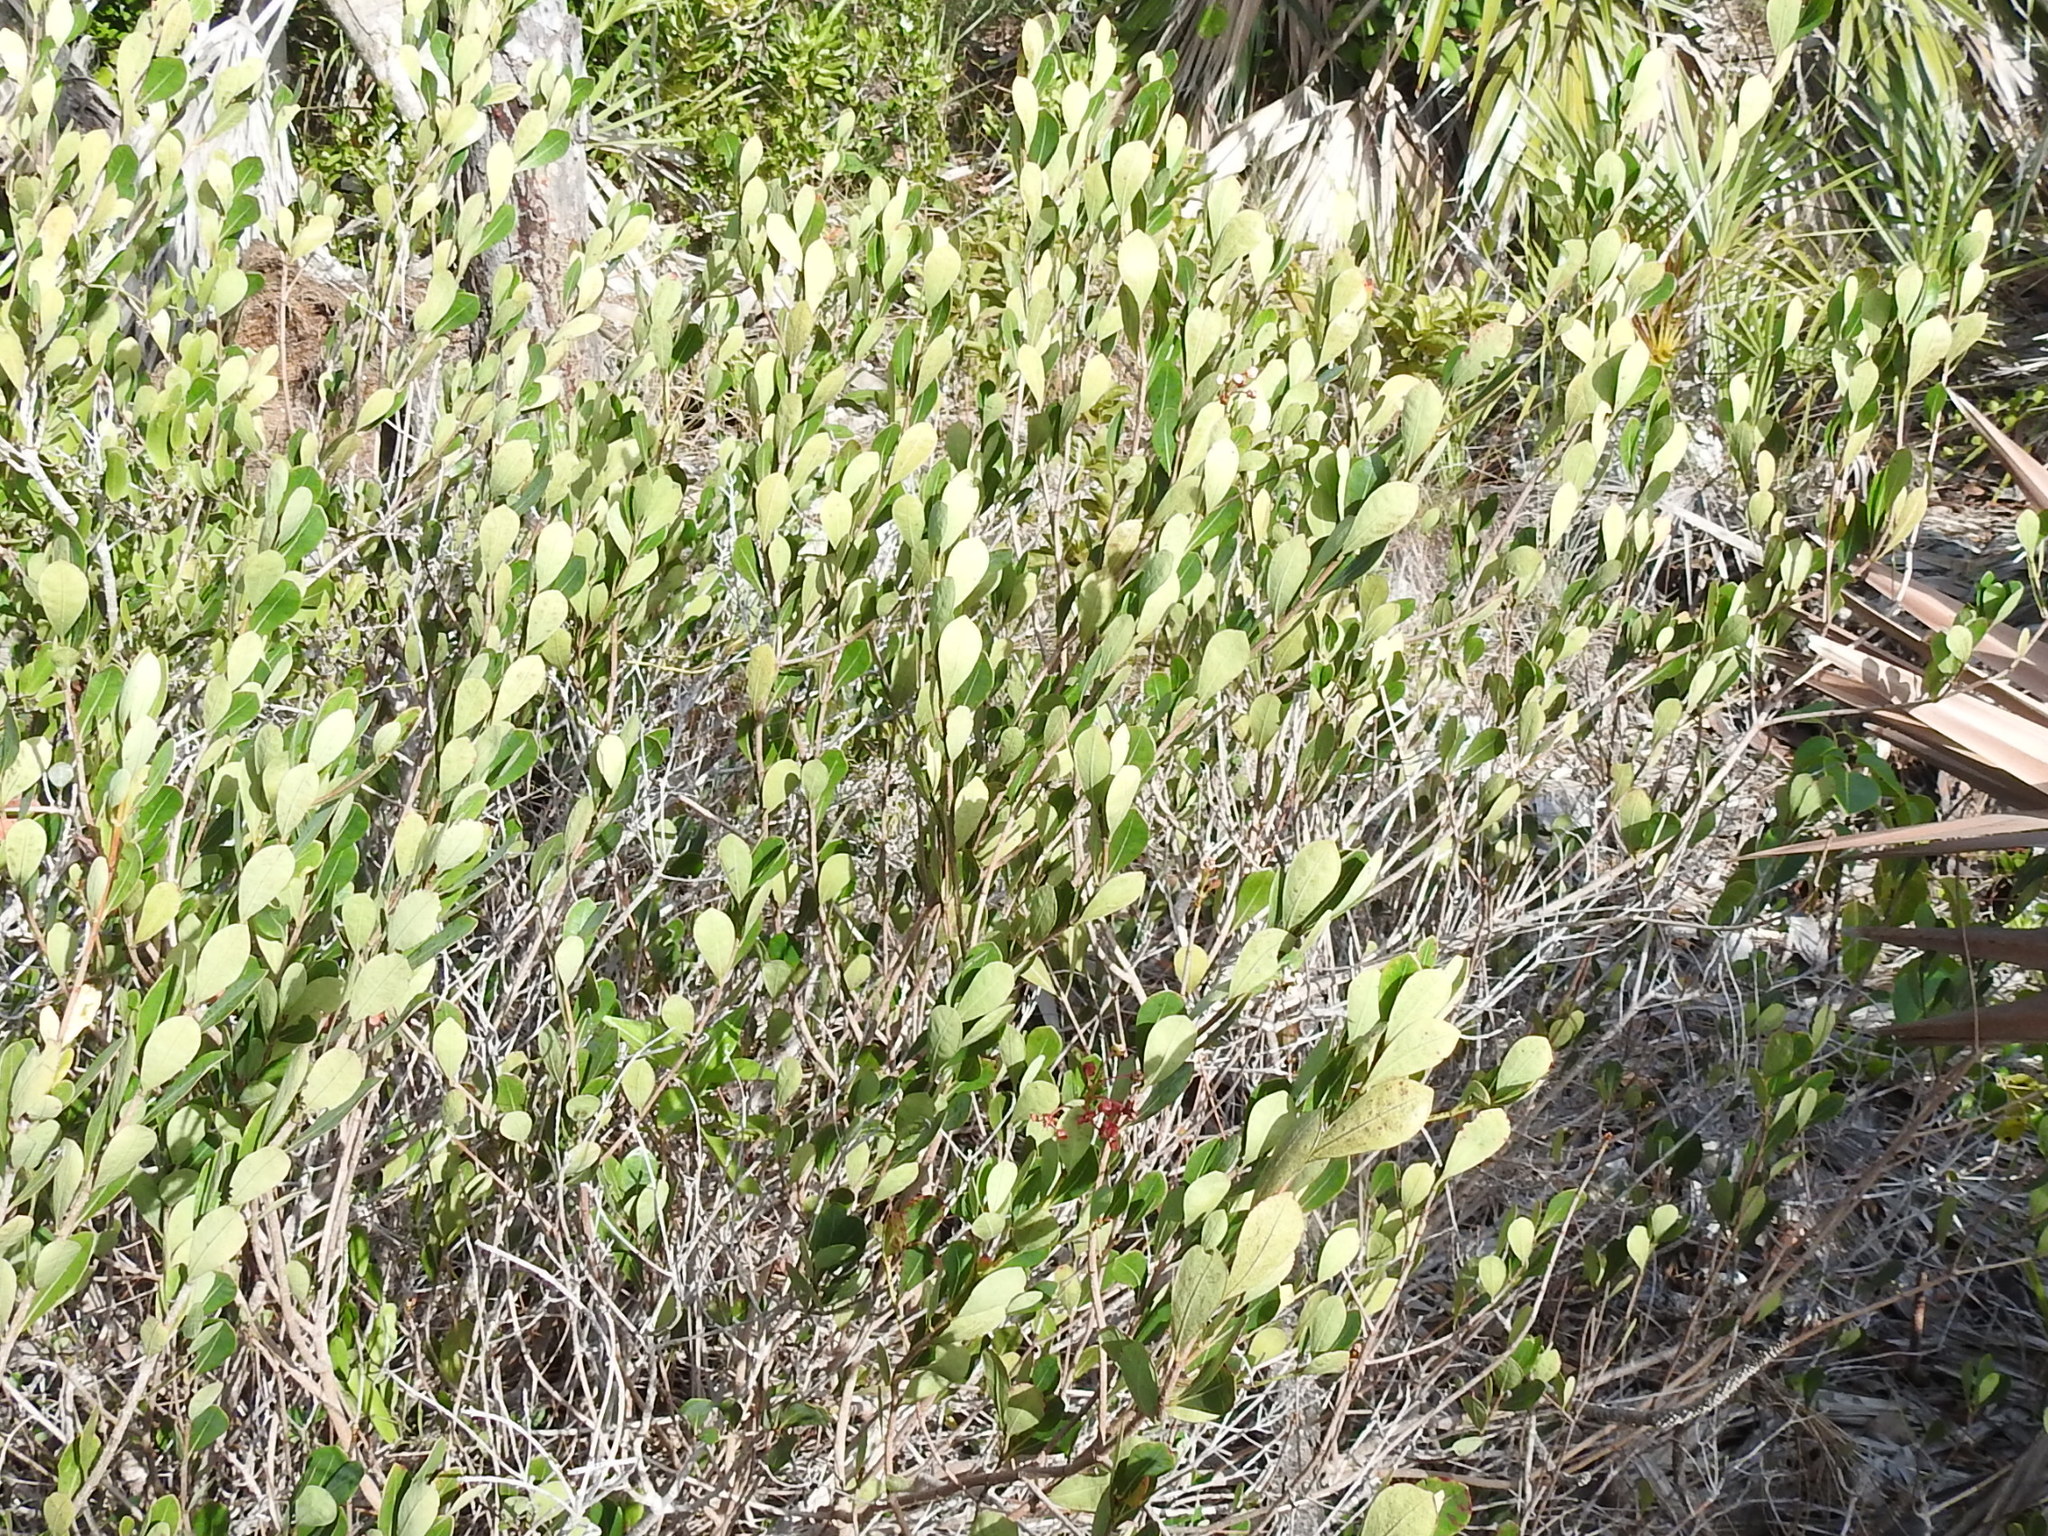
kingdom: Plantae
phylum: Tracheophyta
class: Magnoliopsida
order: Malpighiales
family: Malpighiaceae
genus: Byrsonima
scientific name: Byrsonima lucida
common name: Clam-cherry
